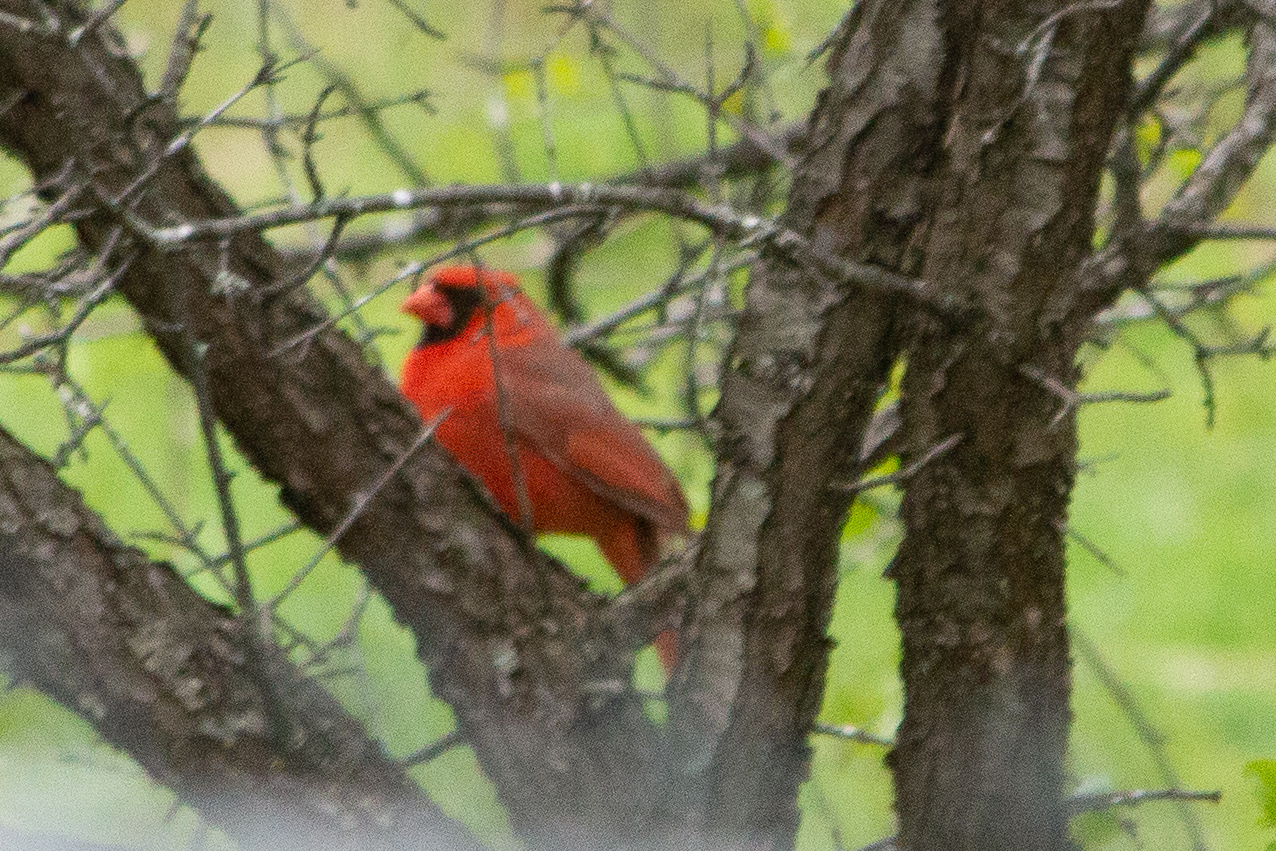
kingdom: Animalia
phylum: Chordata
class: Aves
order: Passeriformes
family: Cardinalidae
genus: Cardinalis
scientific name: Cardinalis cardinalis
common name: Northern cardinal
